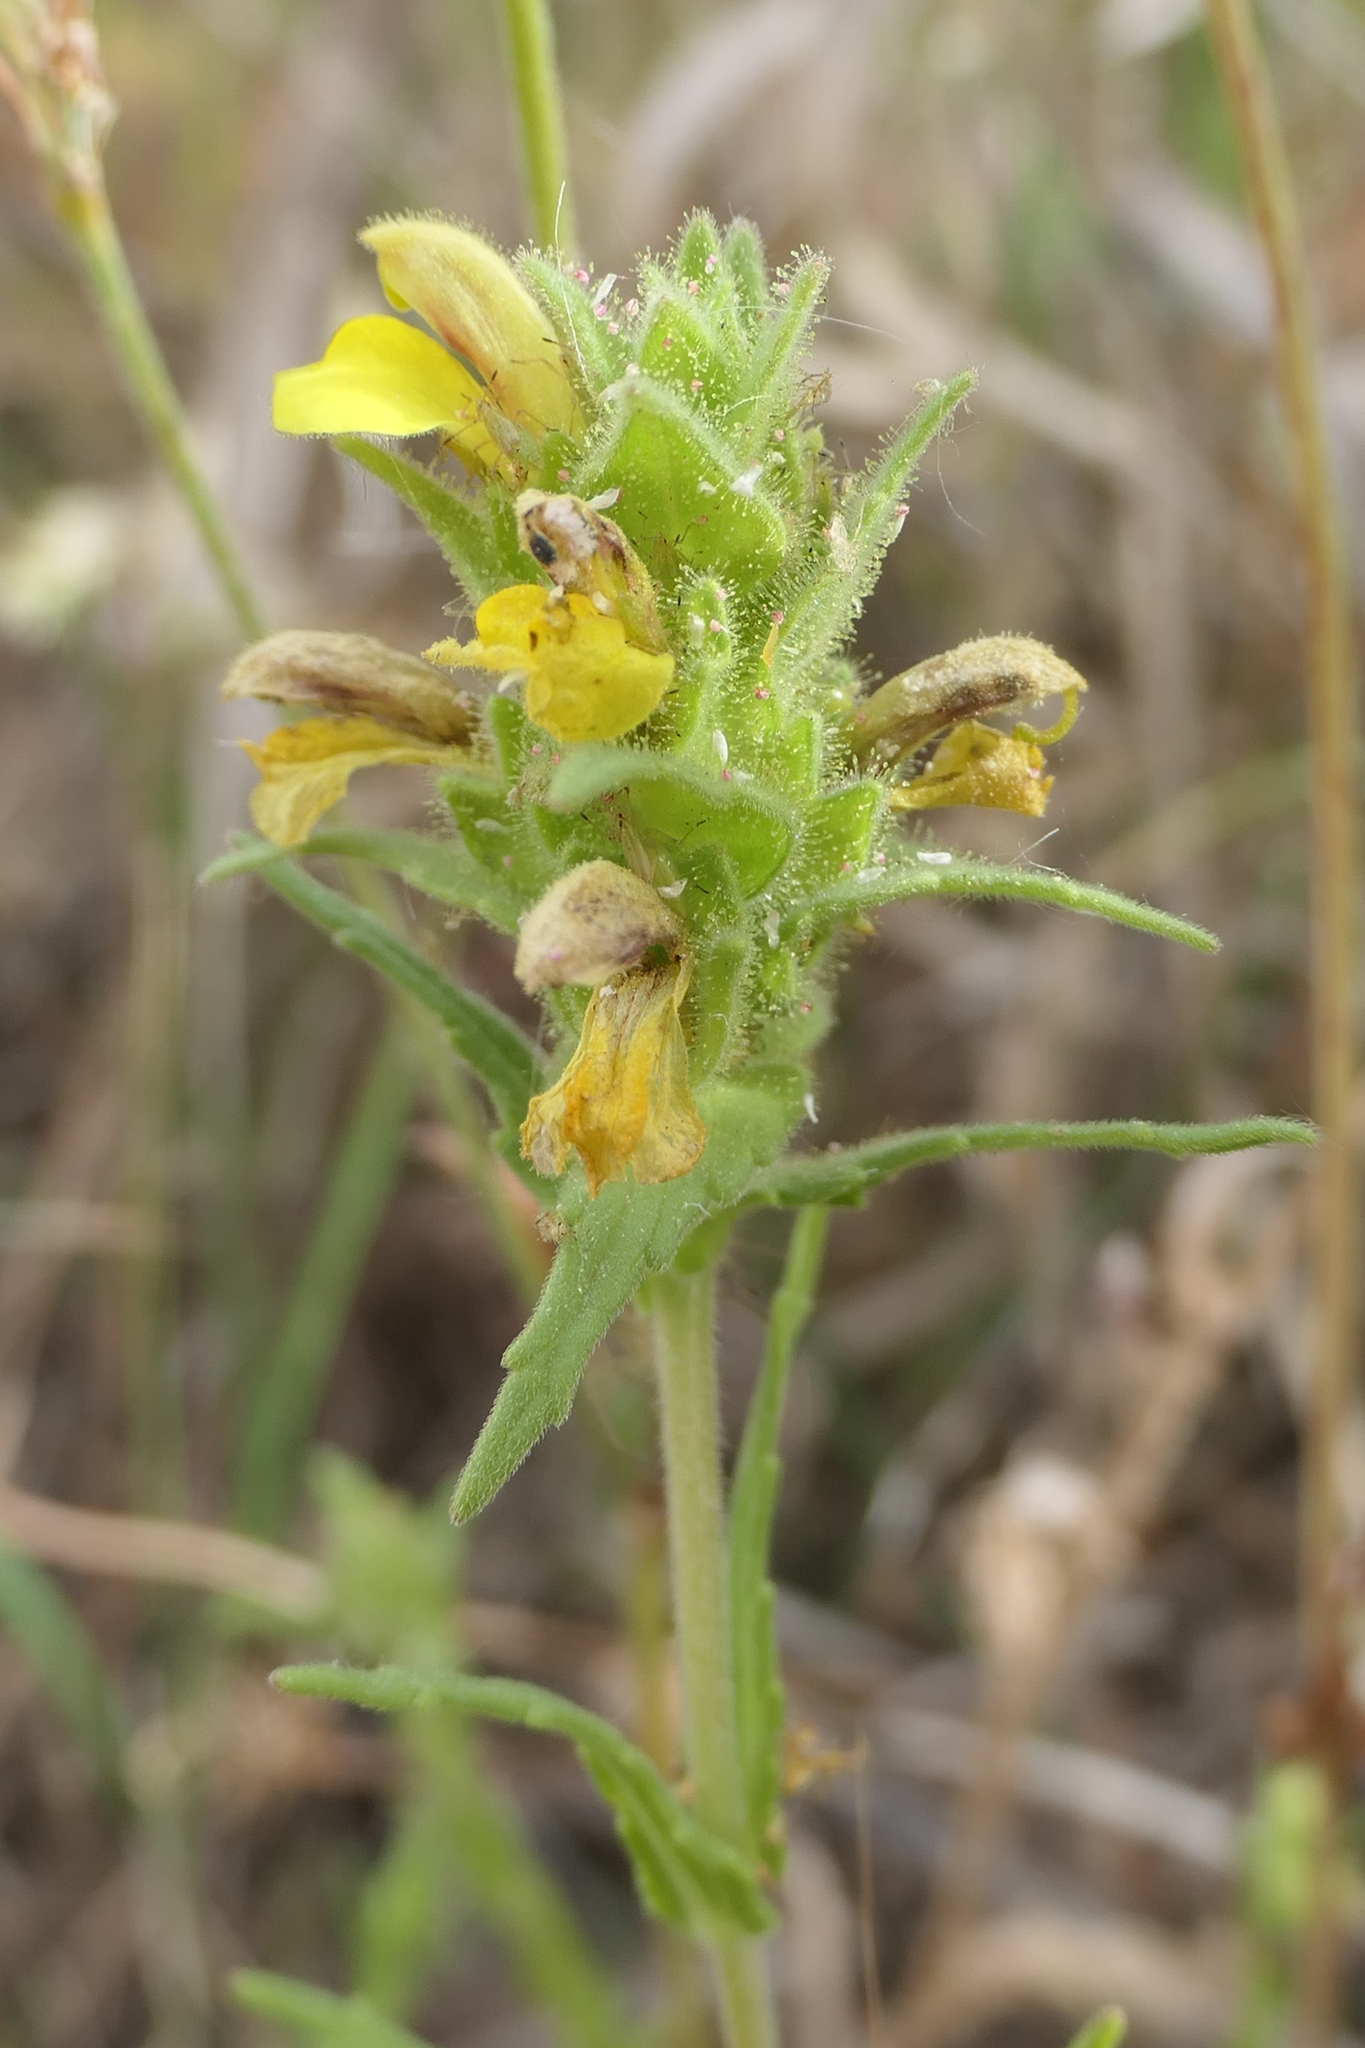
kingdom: Plantae
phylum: Tracheophyta
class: Magnoliopsida
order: Lamiales
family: Orobanchaceae
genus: Bellardia
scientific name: Bellardia trixago
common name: Mediterranean lineseed
